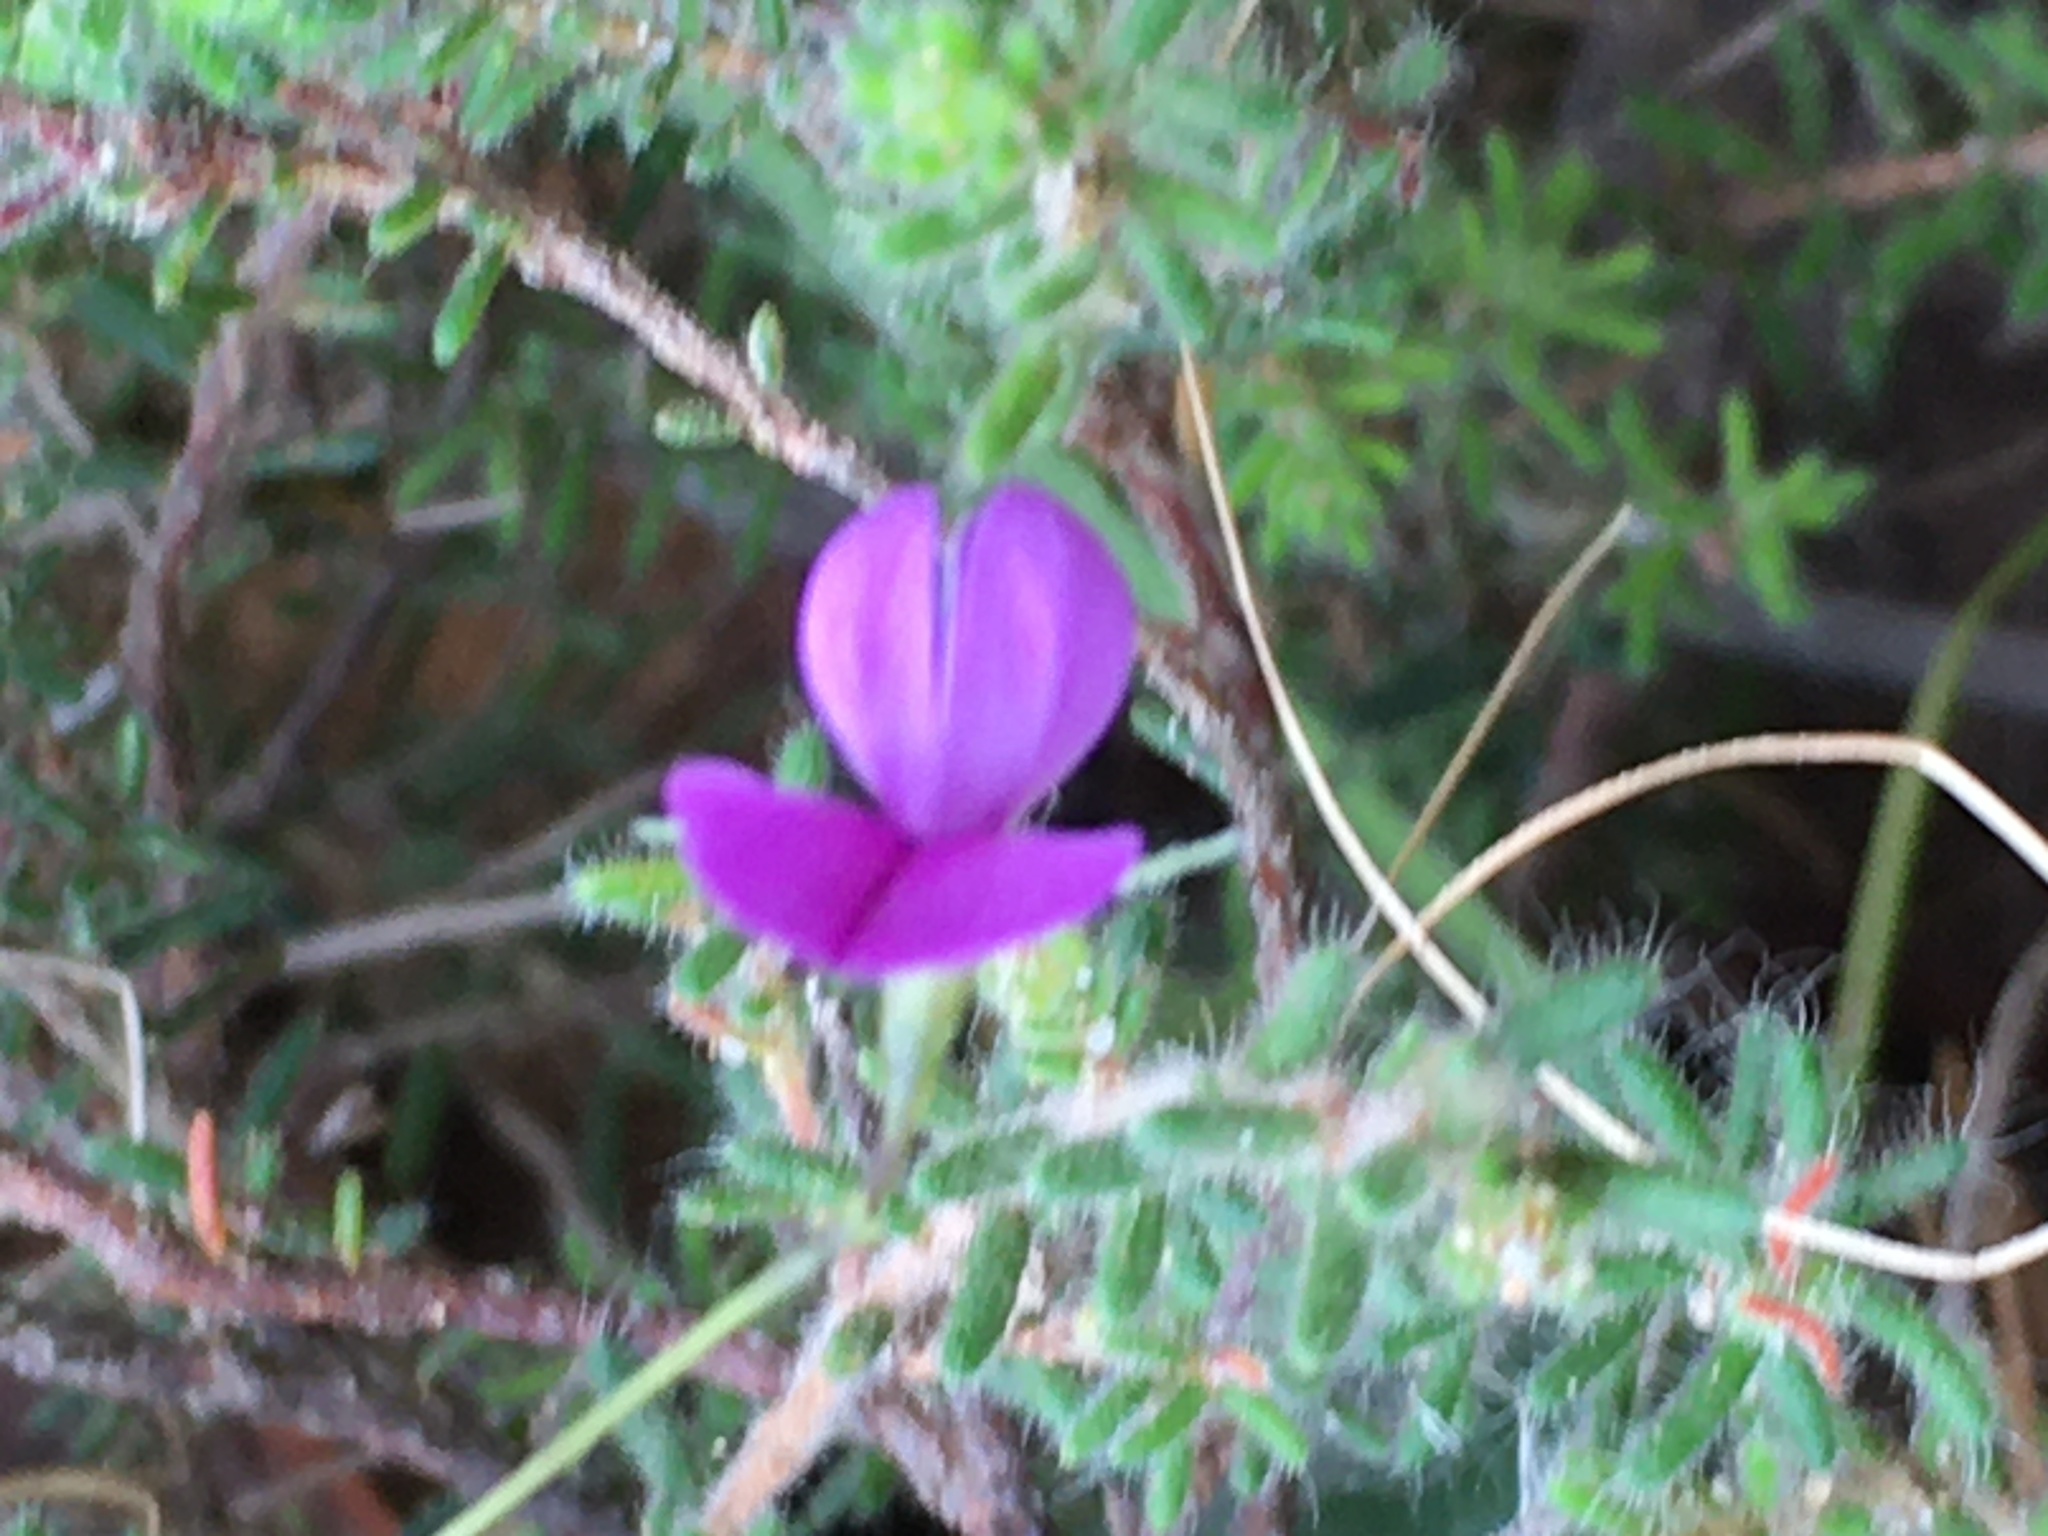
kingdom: Plantae
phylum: Tracheophyta
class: Magnoliopsida
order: Fabales
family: Fabaceae
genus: Psoralea
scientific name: Psoralea laxa
